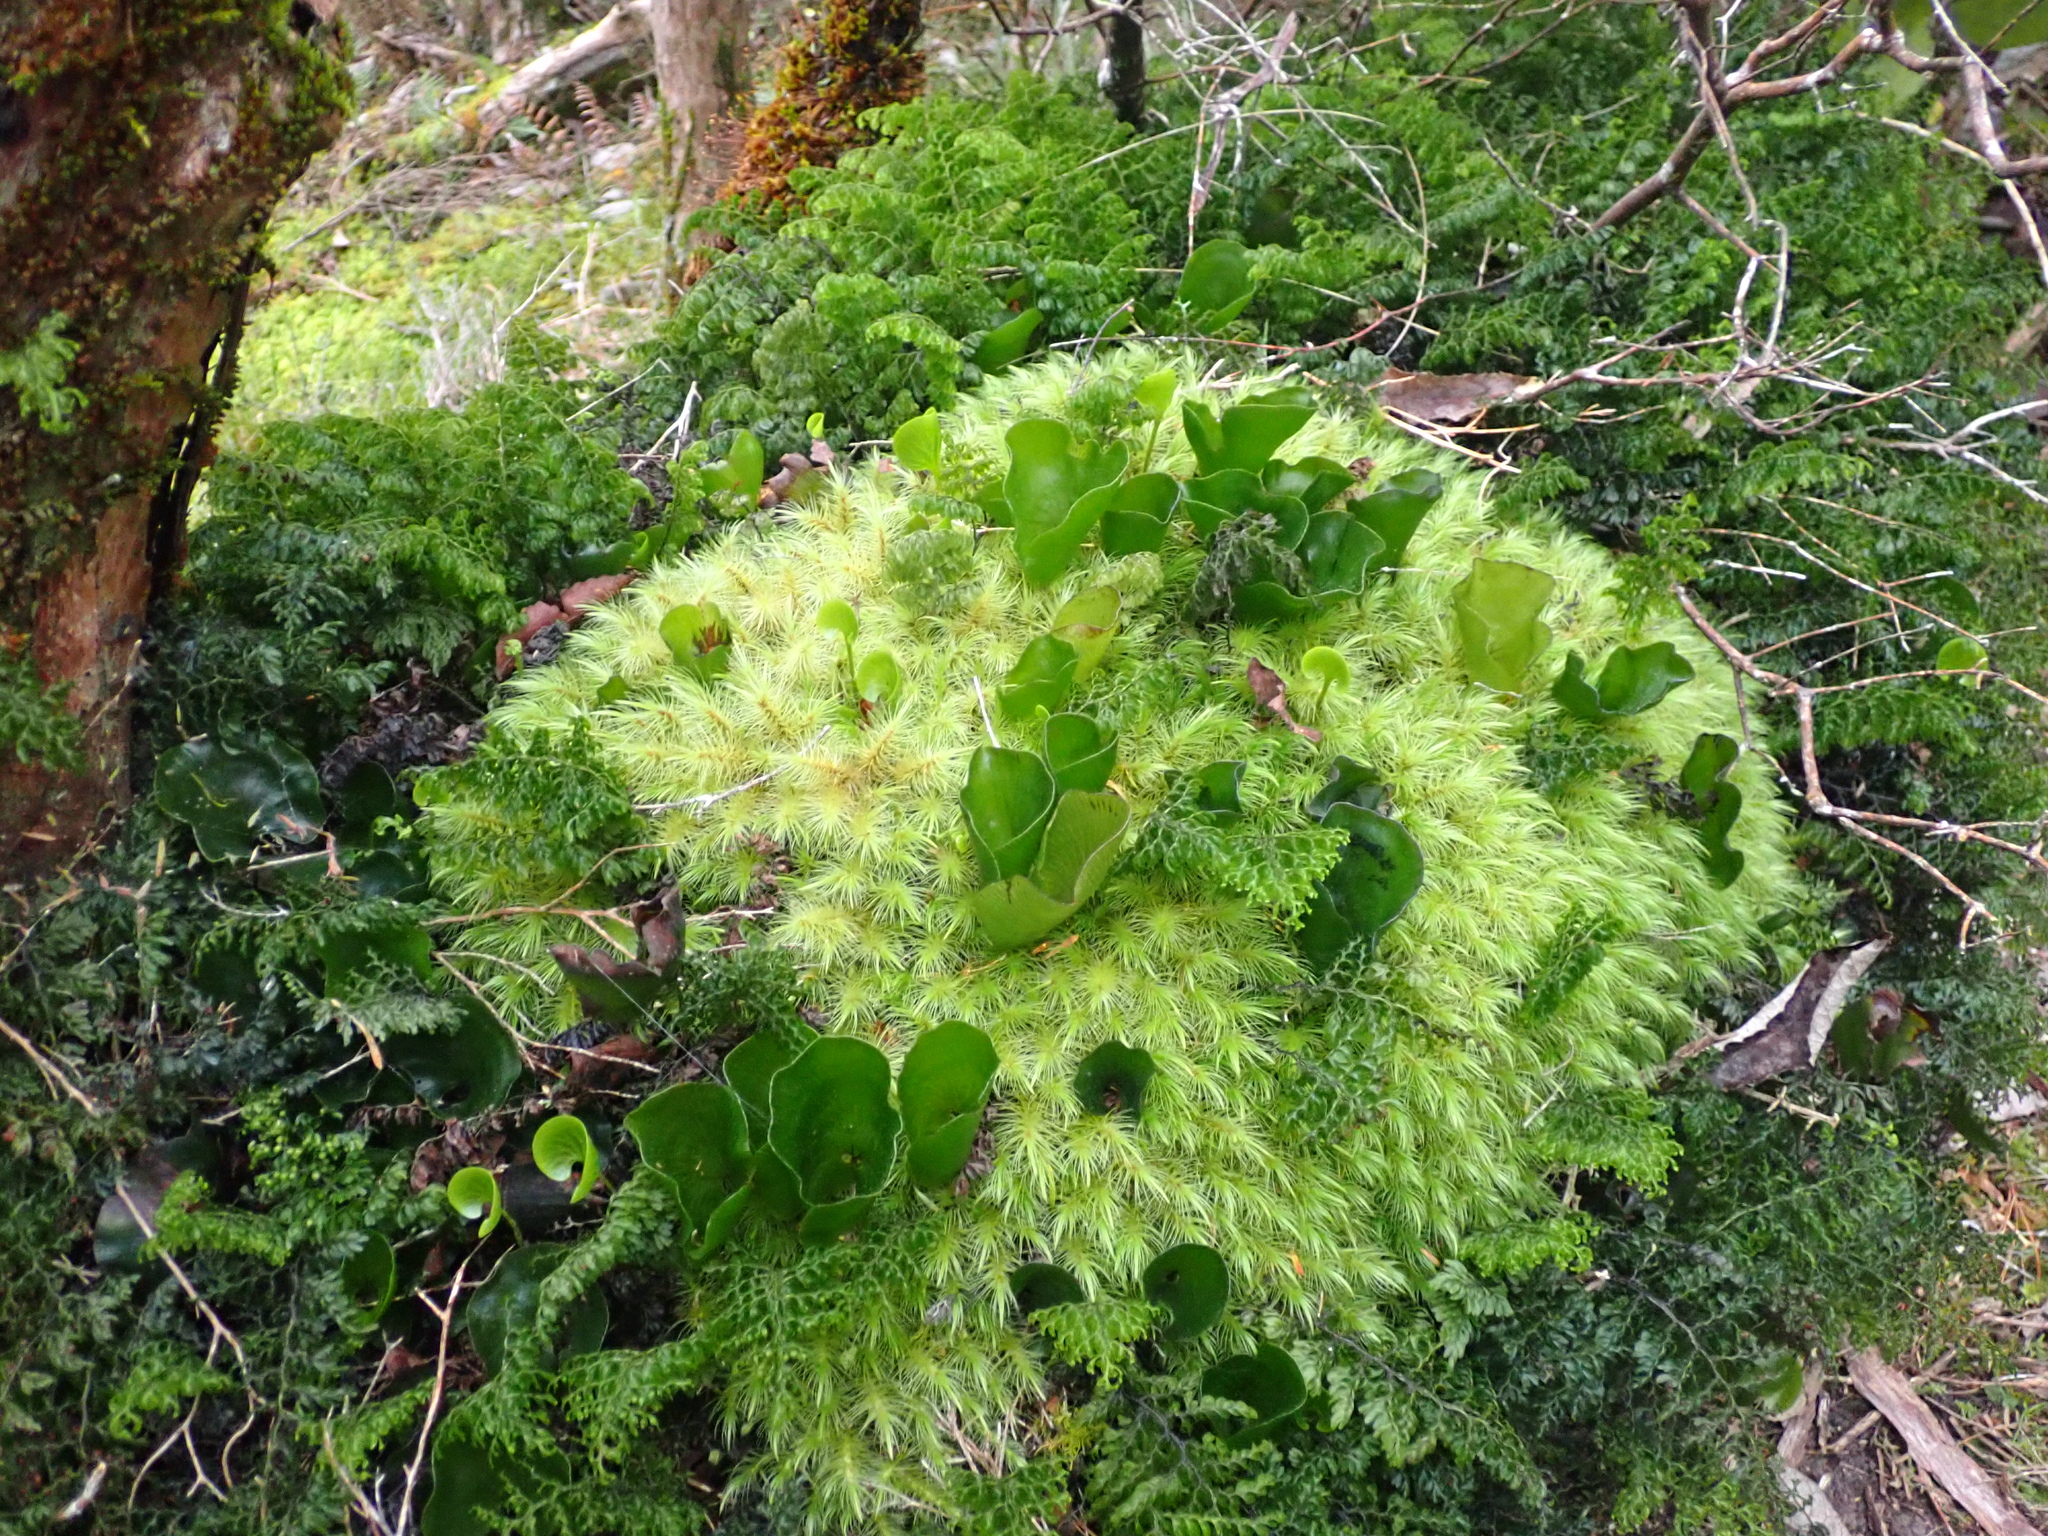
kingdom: Plantae
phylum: Bryophyta
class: Bryopsida
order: Dicranales
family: Dicranaceae
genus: Dicranoloma
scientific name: Dicranoloma robustum
